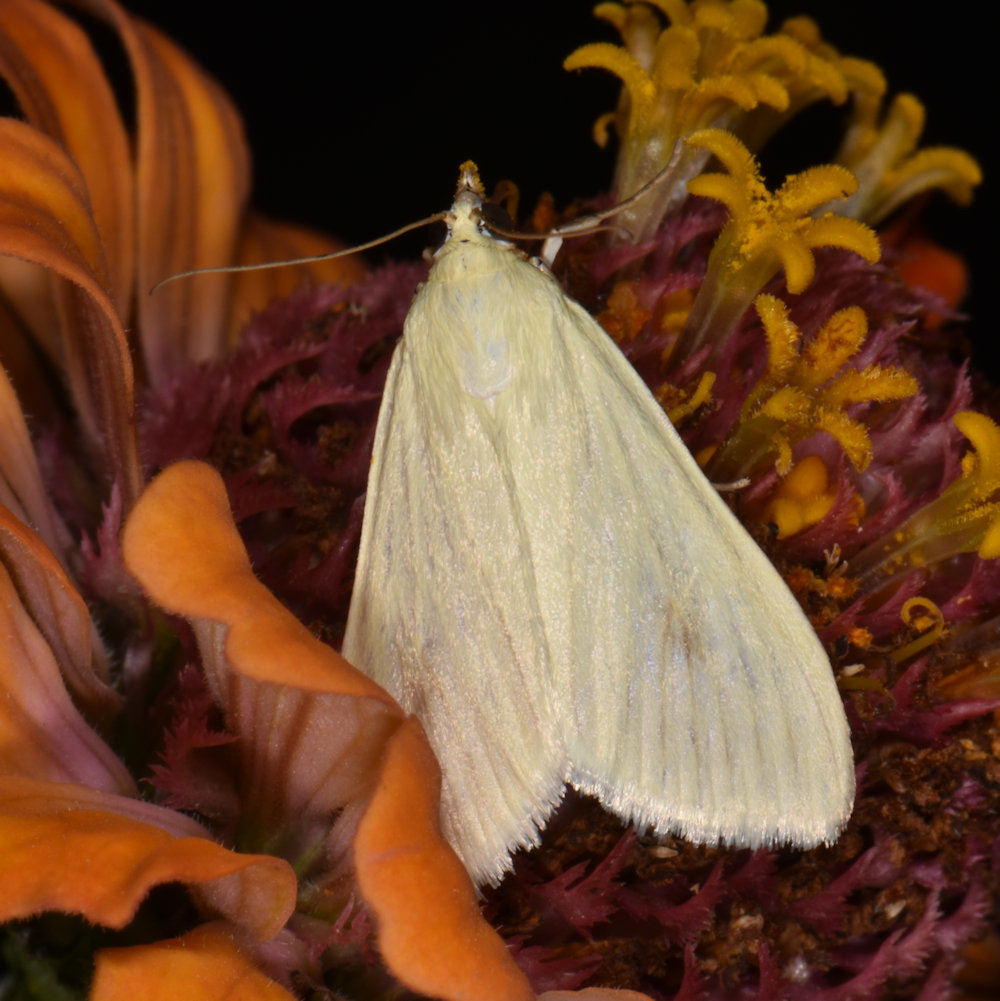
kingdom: Animalia
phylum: Arthropoda
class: Insecta
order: Lepidoptera
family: Crambidae
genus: Sitochroa
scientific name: Sitochroa palealis
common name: Greenish-yellow sitochroa moth
